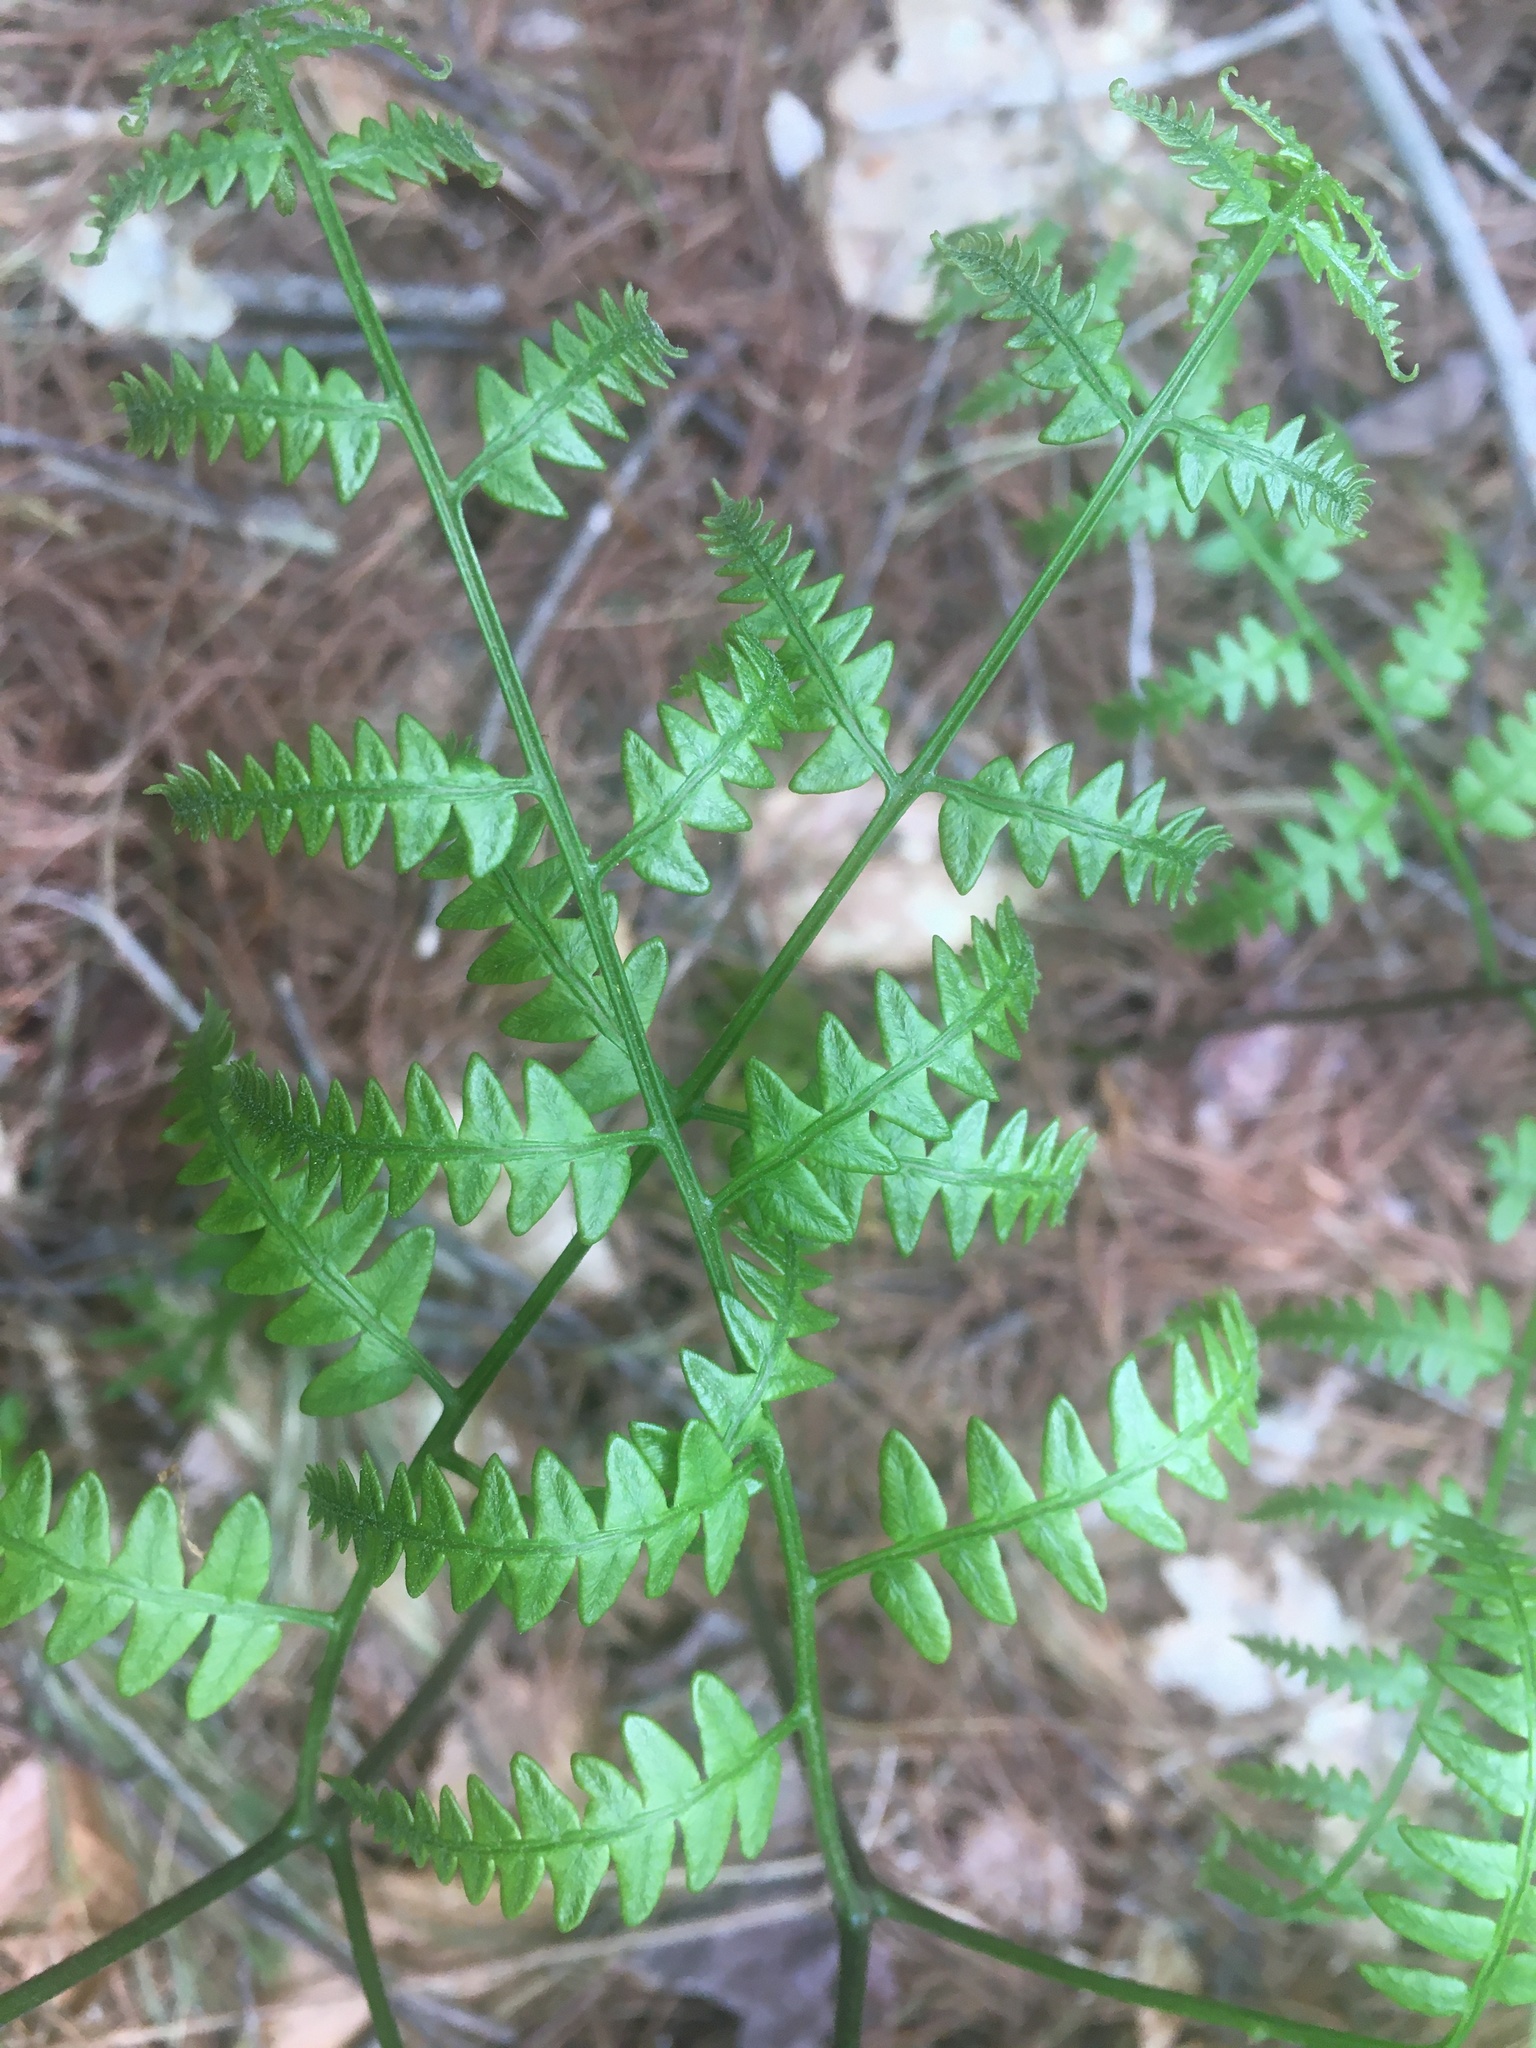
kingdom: Plantae
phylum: Tracheophyta
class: Polypodiopsida
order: Polypodiales
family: Dennstaedtiaceae
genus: Pteridium
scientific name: Pteridium aquilinum
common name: Bracken
